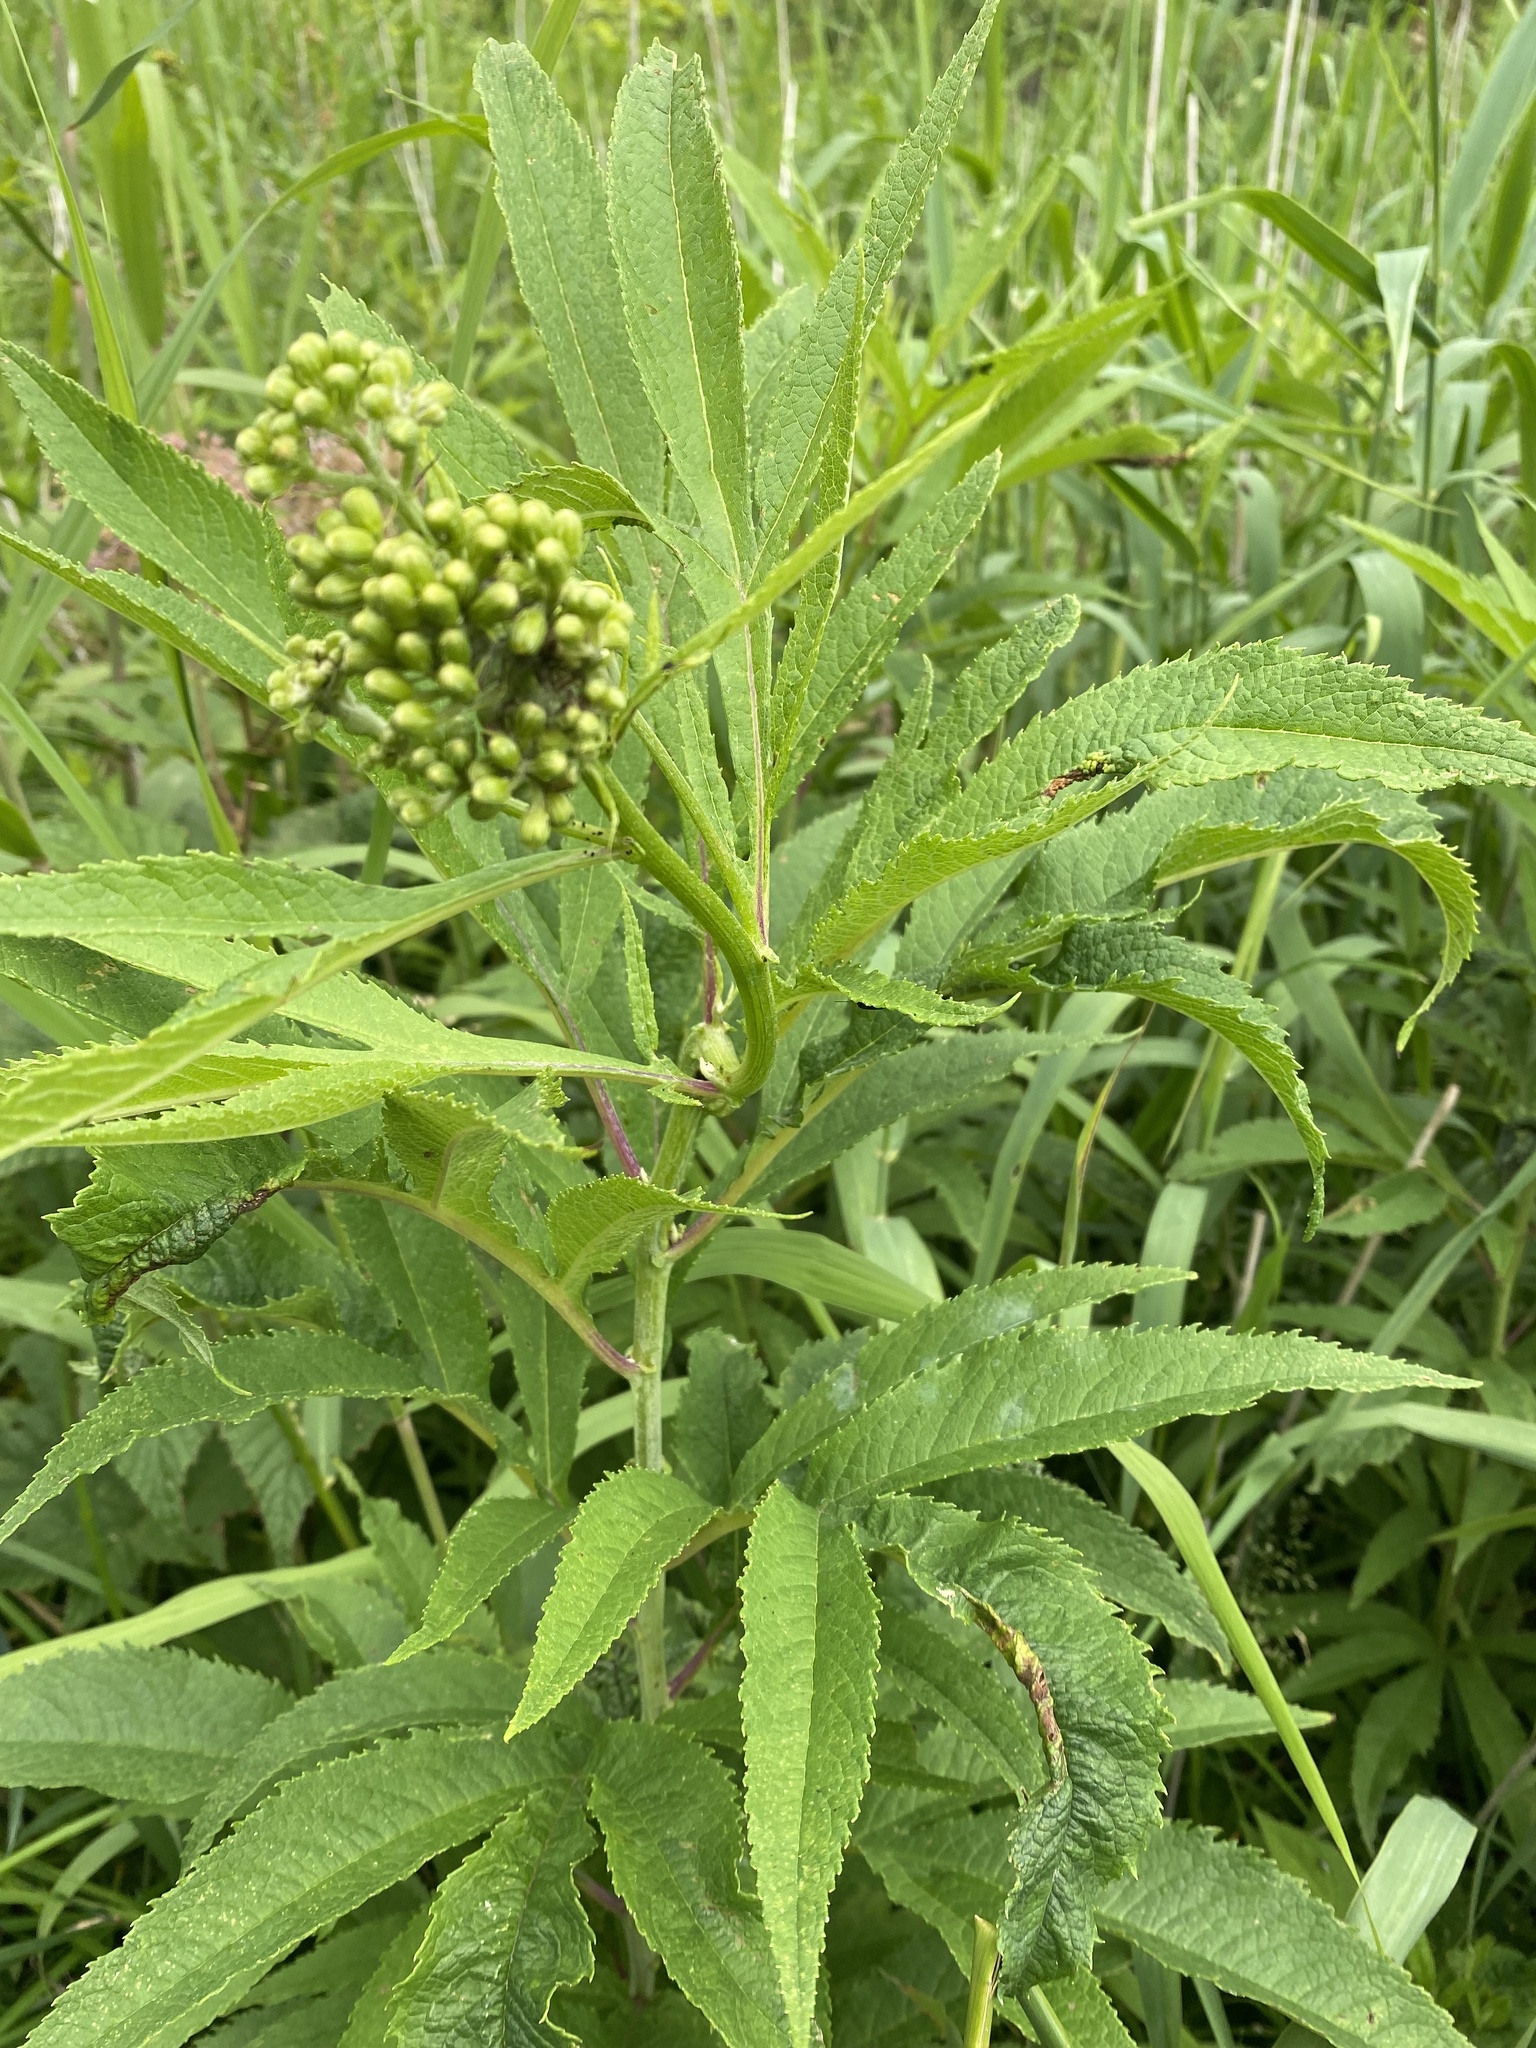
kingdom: Plantae
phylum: Tracheophyta
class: Magnoliopsida
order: Asterales
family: Asteraceae
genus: Jacobaea
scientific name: Jacobaea cannabifolia
